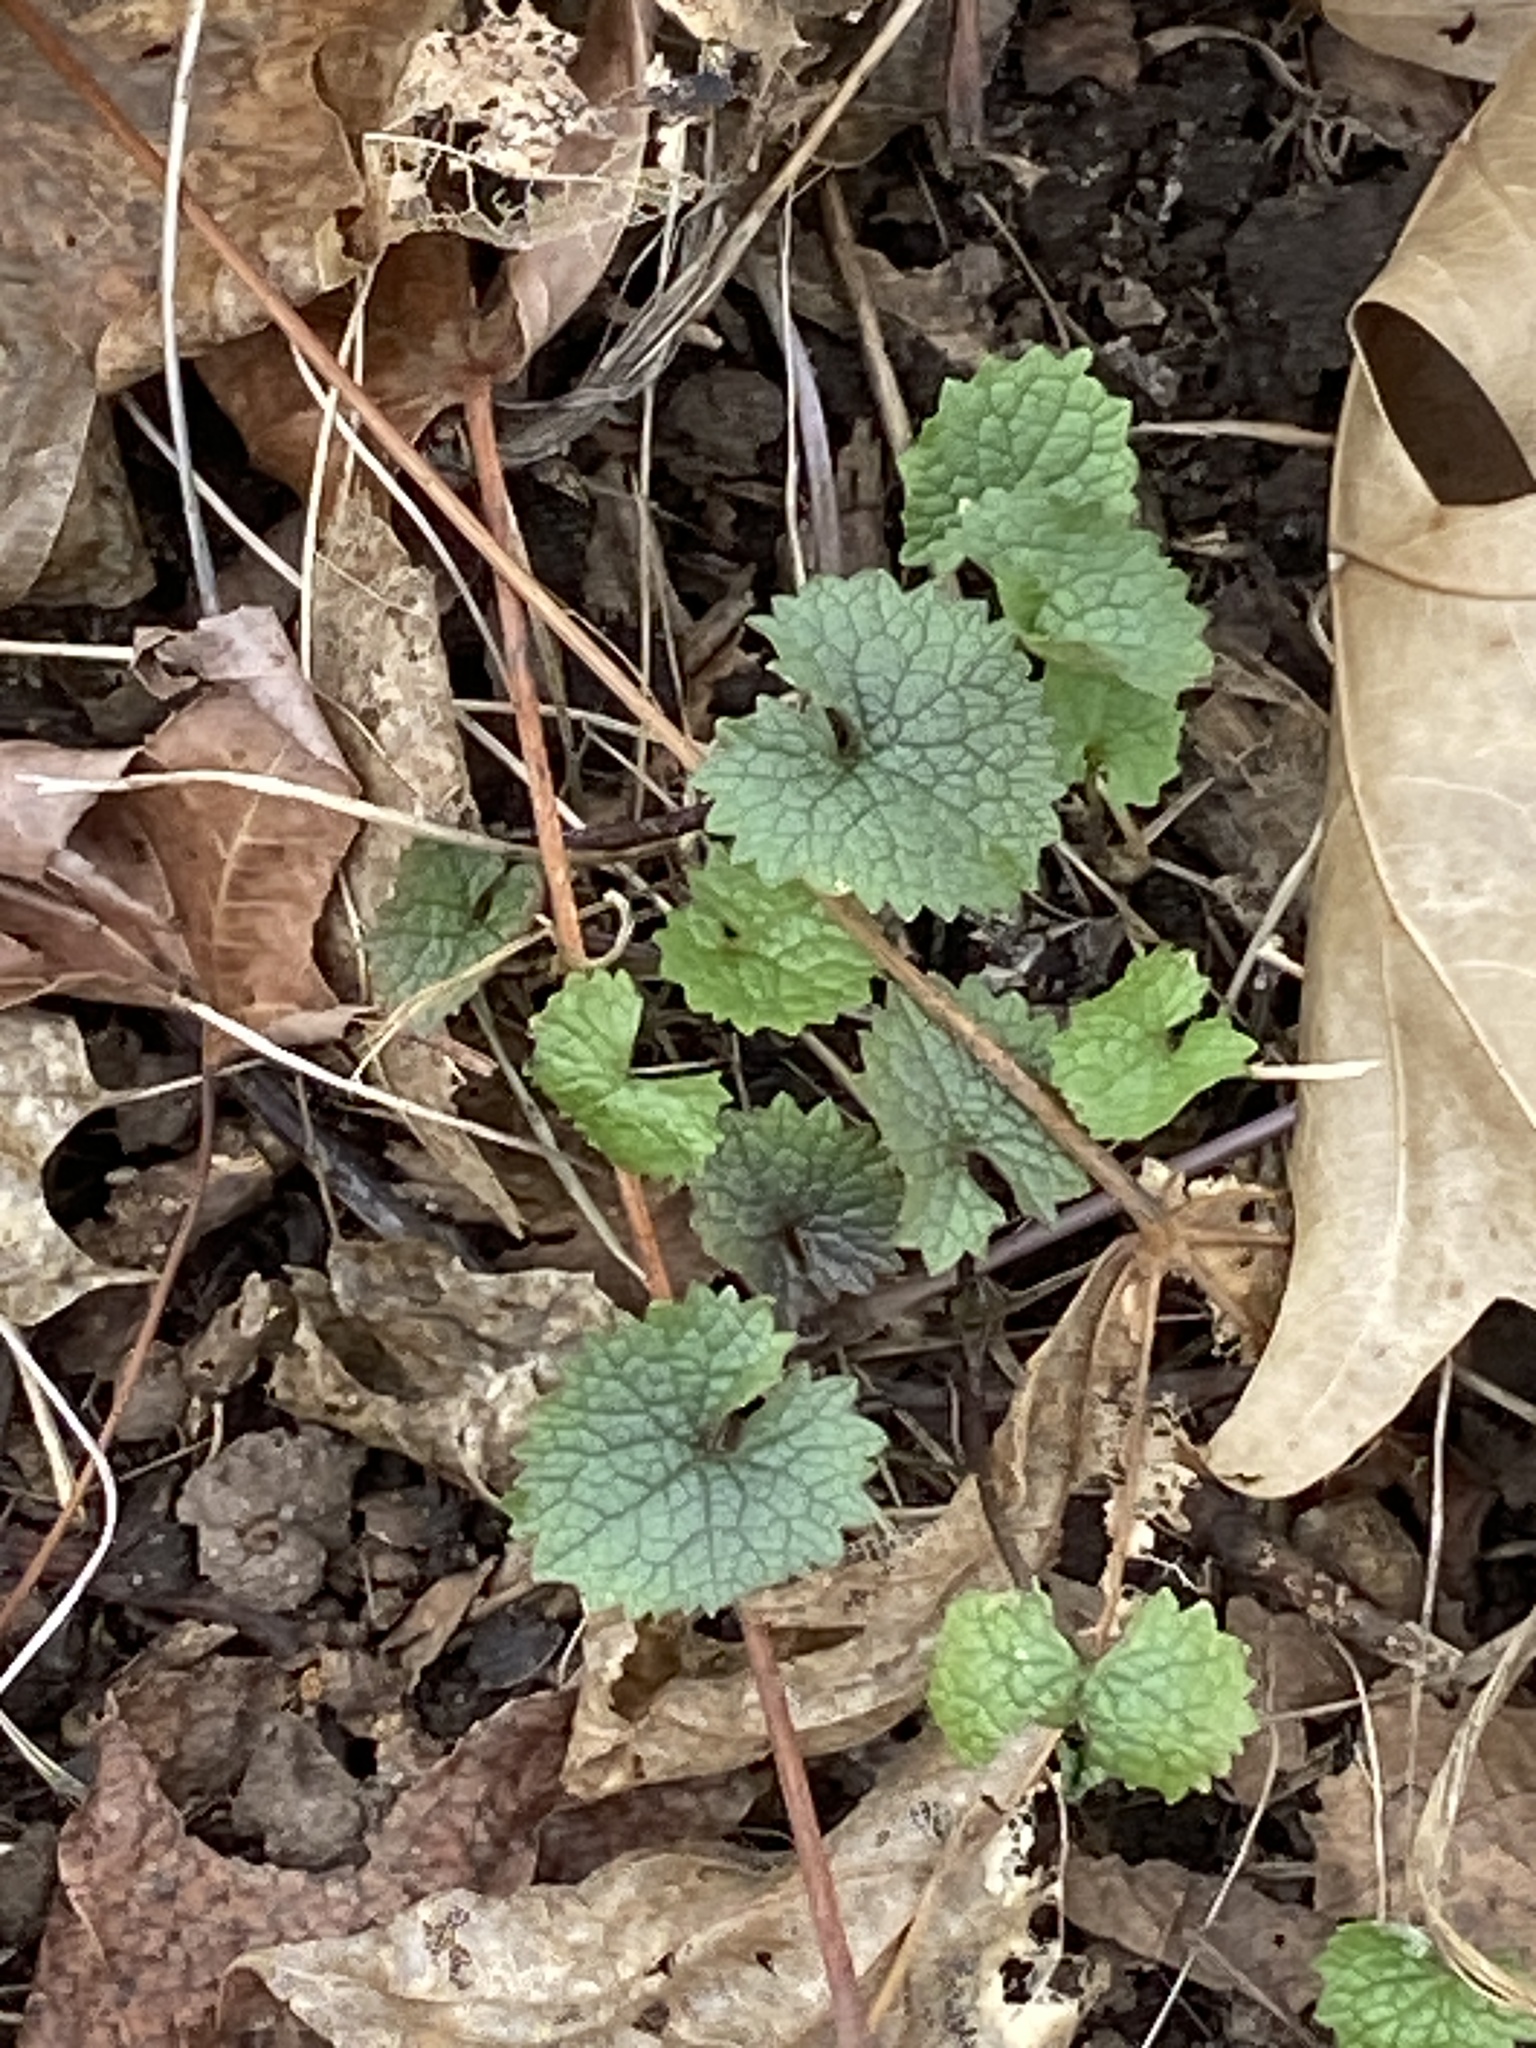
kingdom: Plantae
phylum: Tracheophyta
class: Magnoliopsida
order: Brassicales
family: Brassicaceae
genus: Alliaria
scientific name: Alliaria petiolata
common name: Garlic mustard
